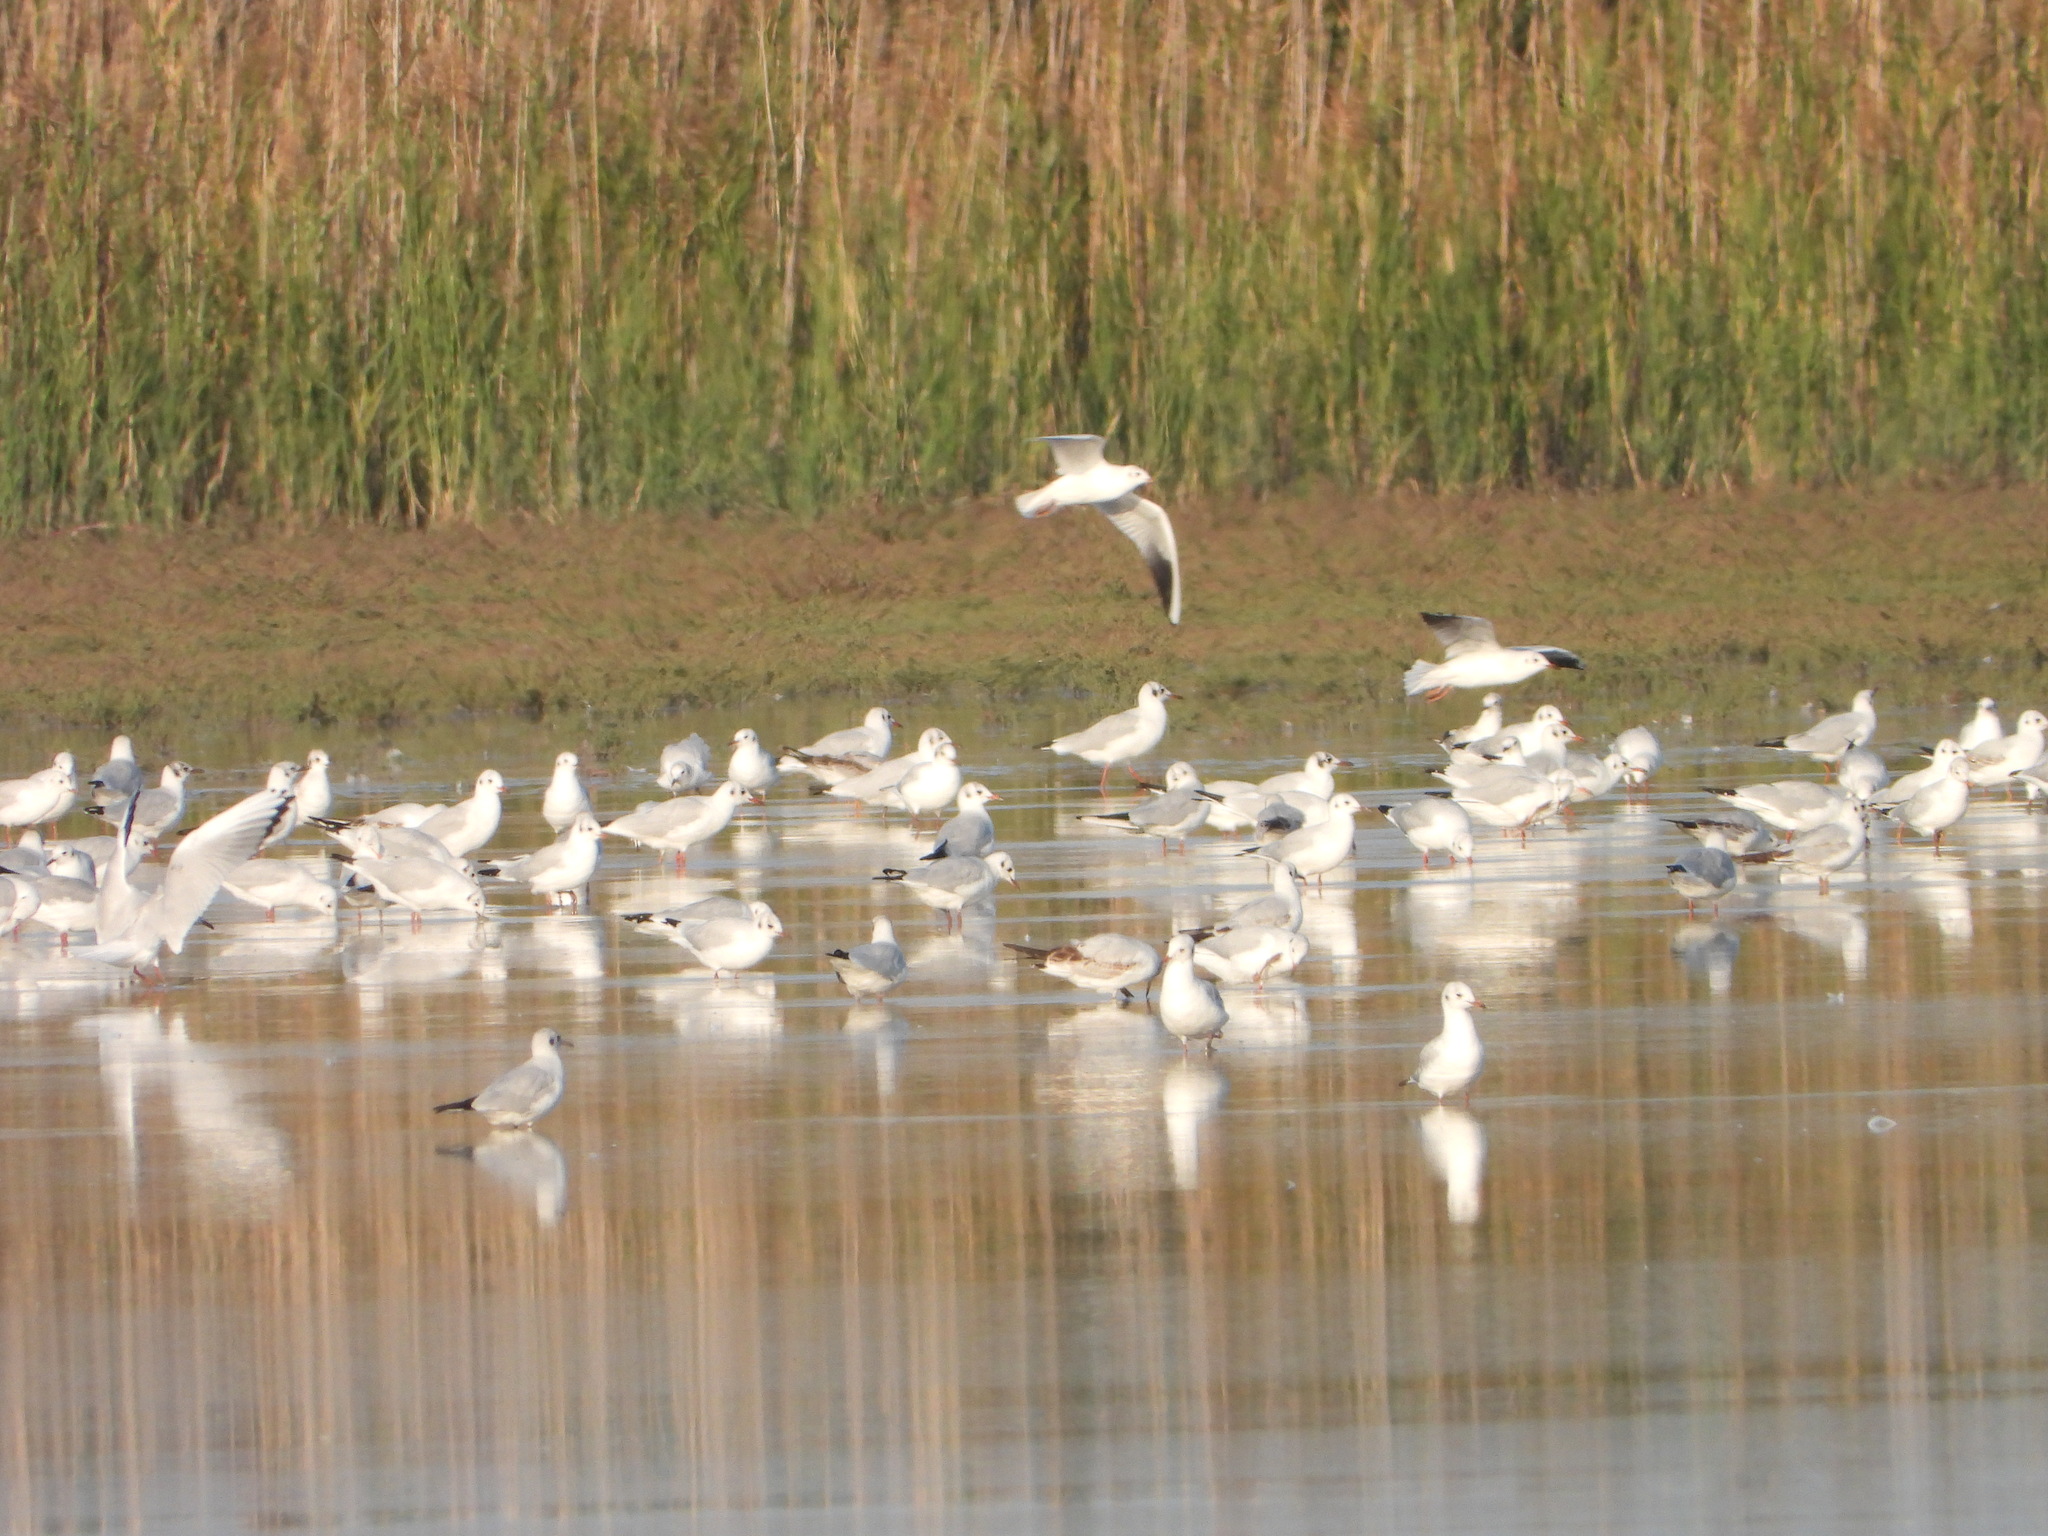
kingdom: Animalia
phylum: Chordata
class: Aves
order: Charadriiformes
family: Laridae
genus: Chroicocephalus
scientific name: Chroicocephalus ridibundus
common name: Black-headed gull
